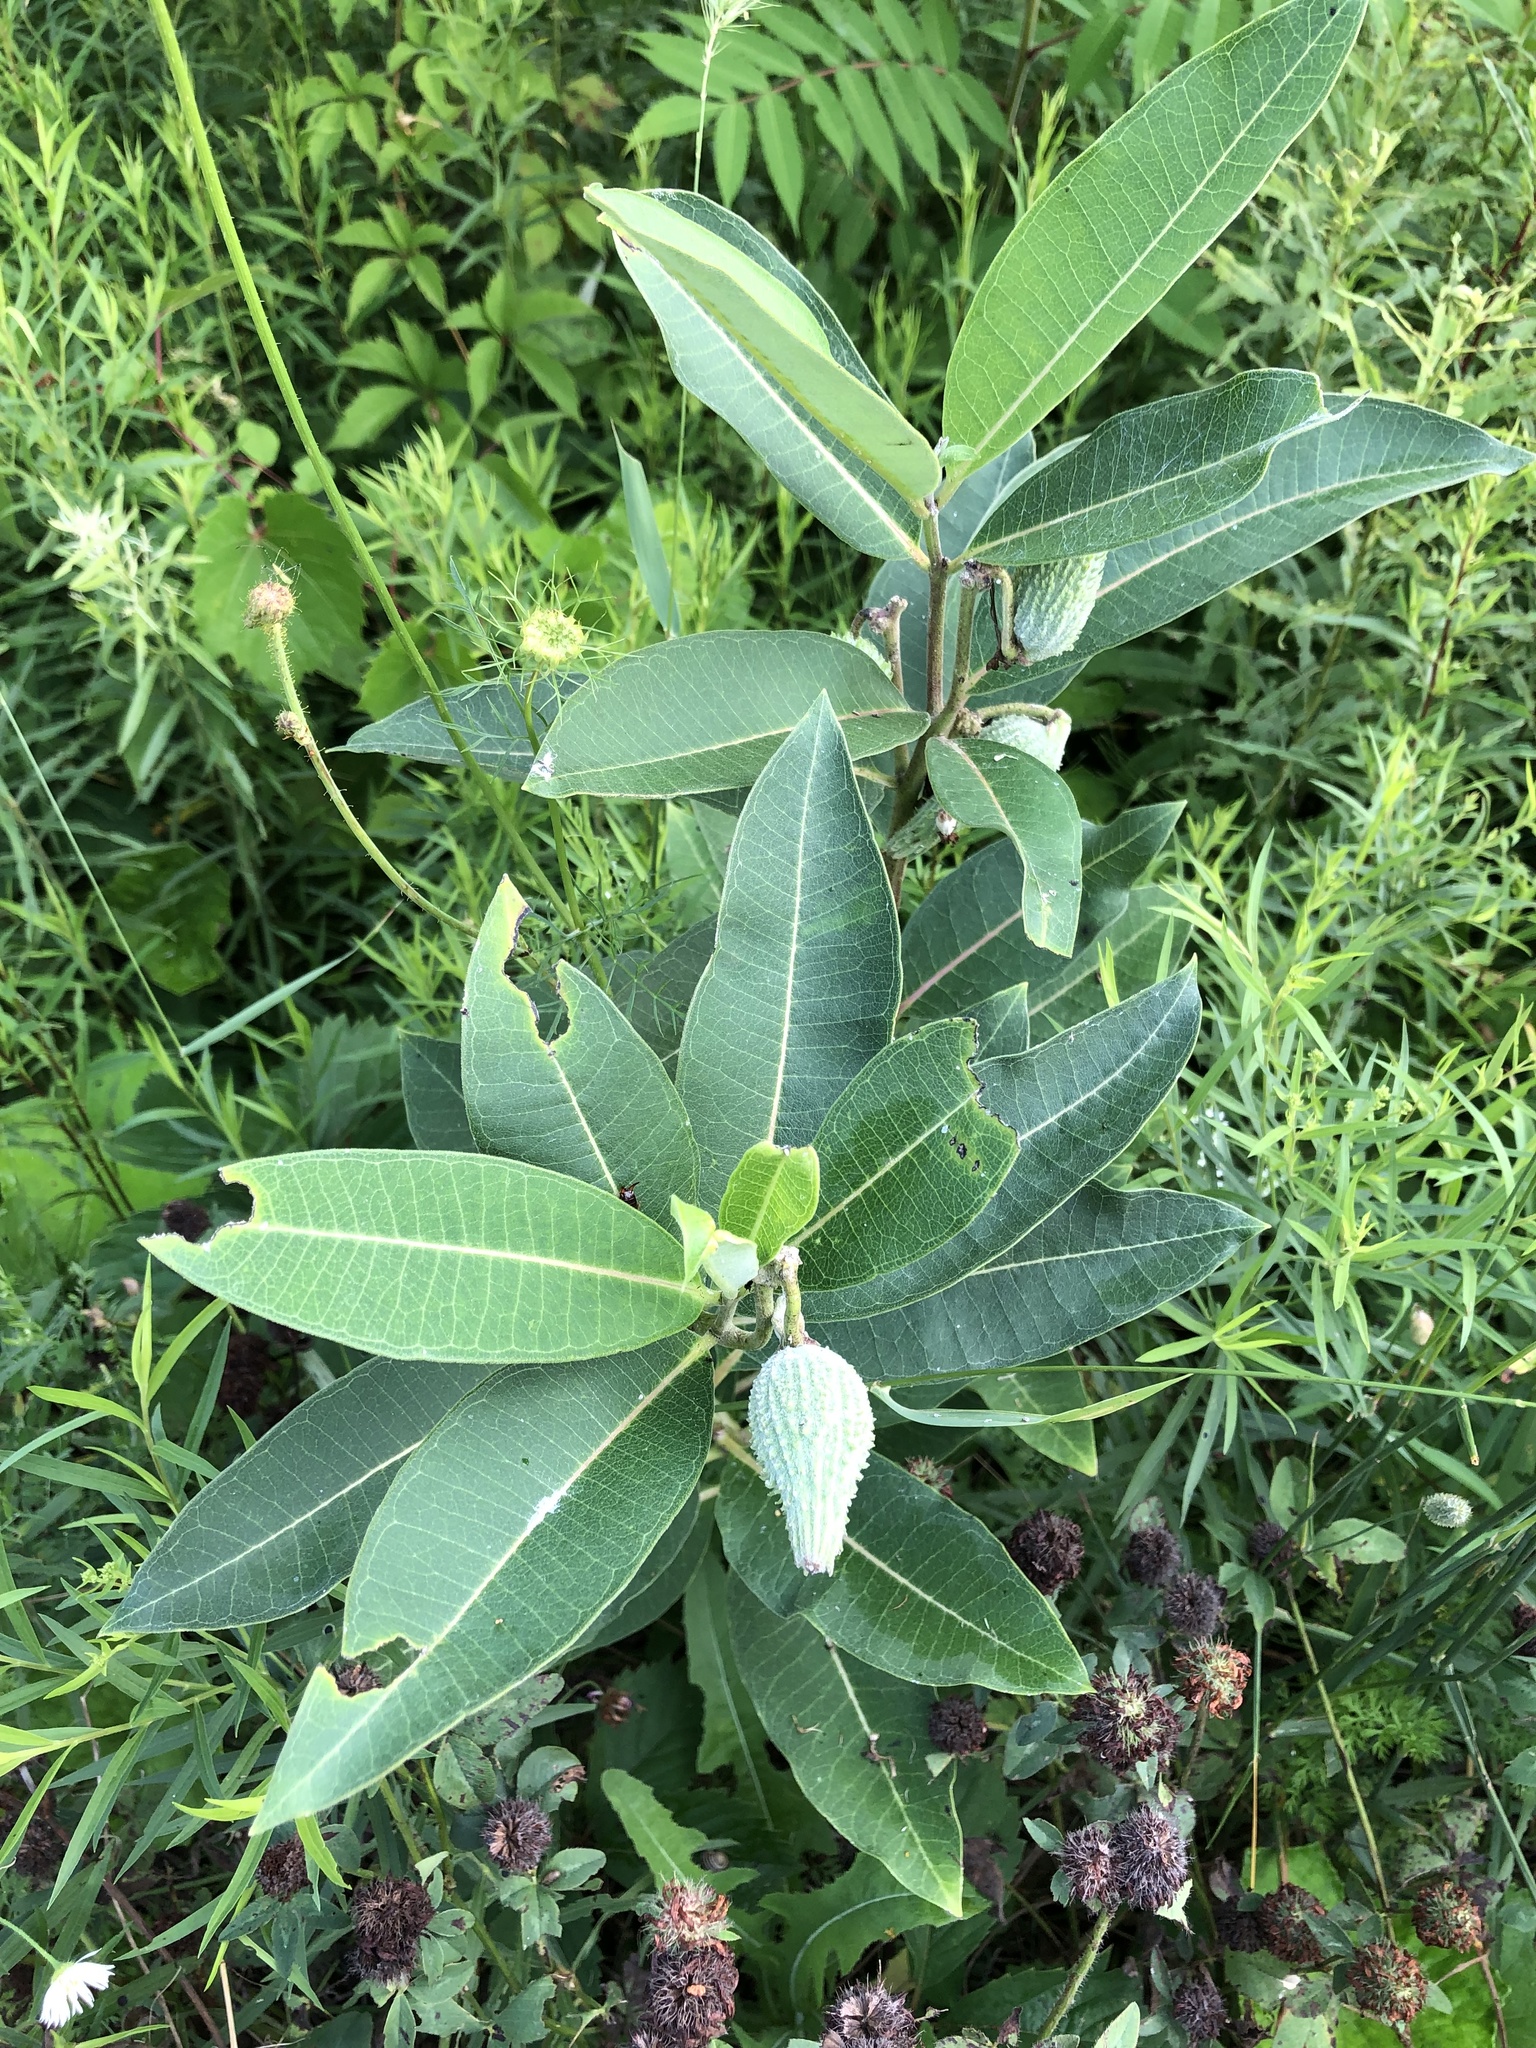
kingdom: Plantae
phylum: Tracheophyta
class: Magnoliopsida
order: Gentianales
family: Apocynaceae
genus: Asclepias
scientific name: Asclepias syriaca
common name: Common milkweed
